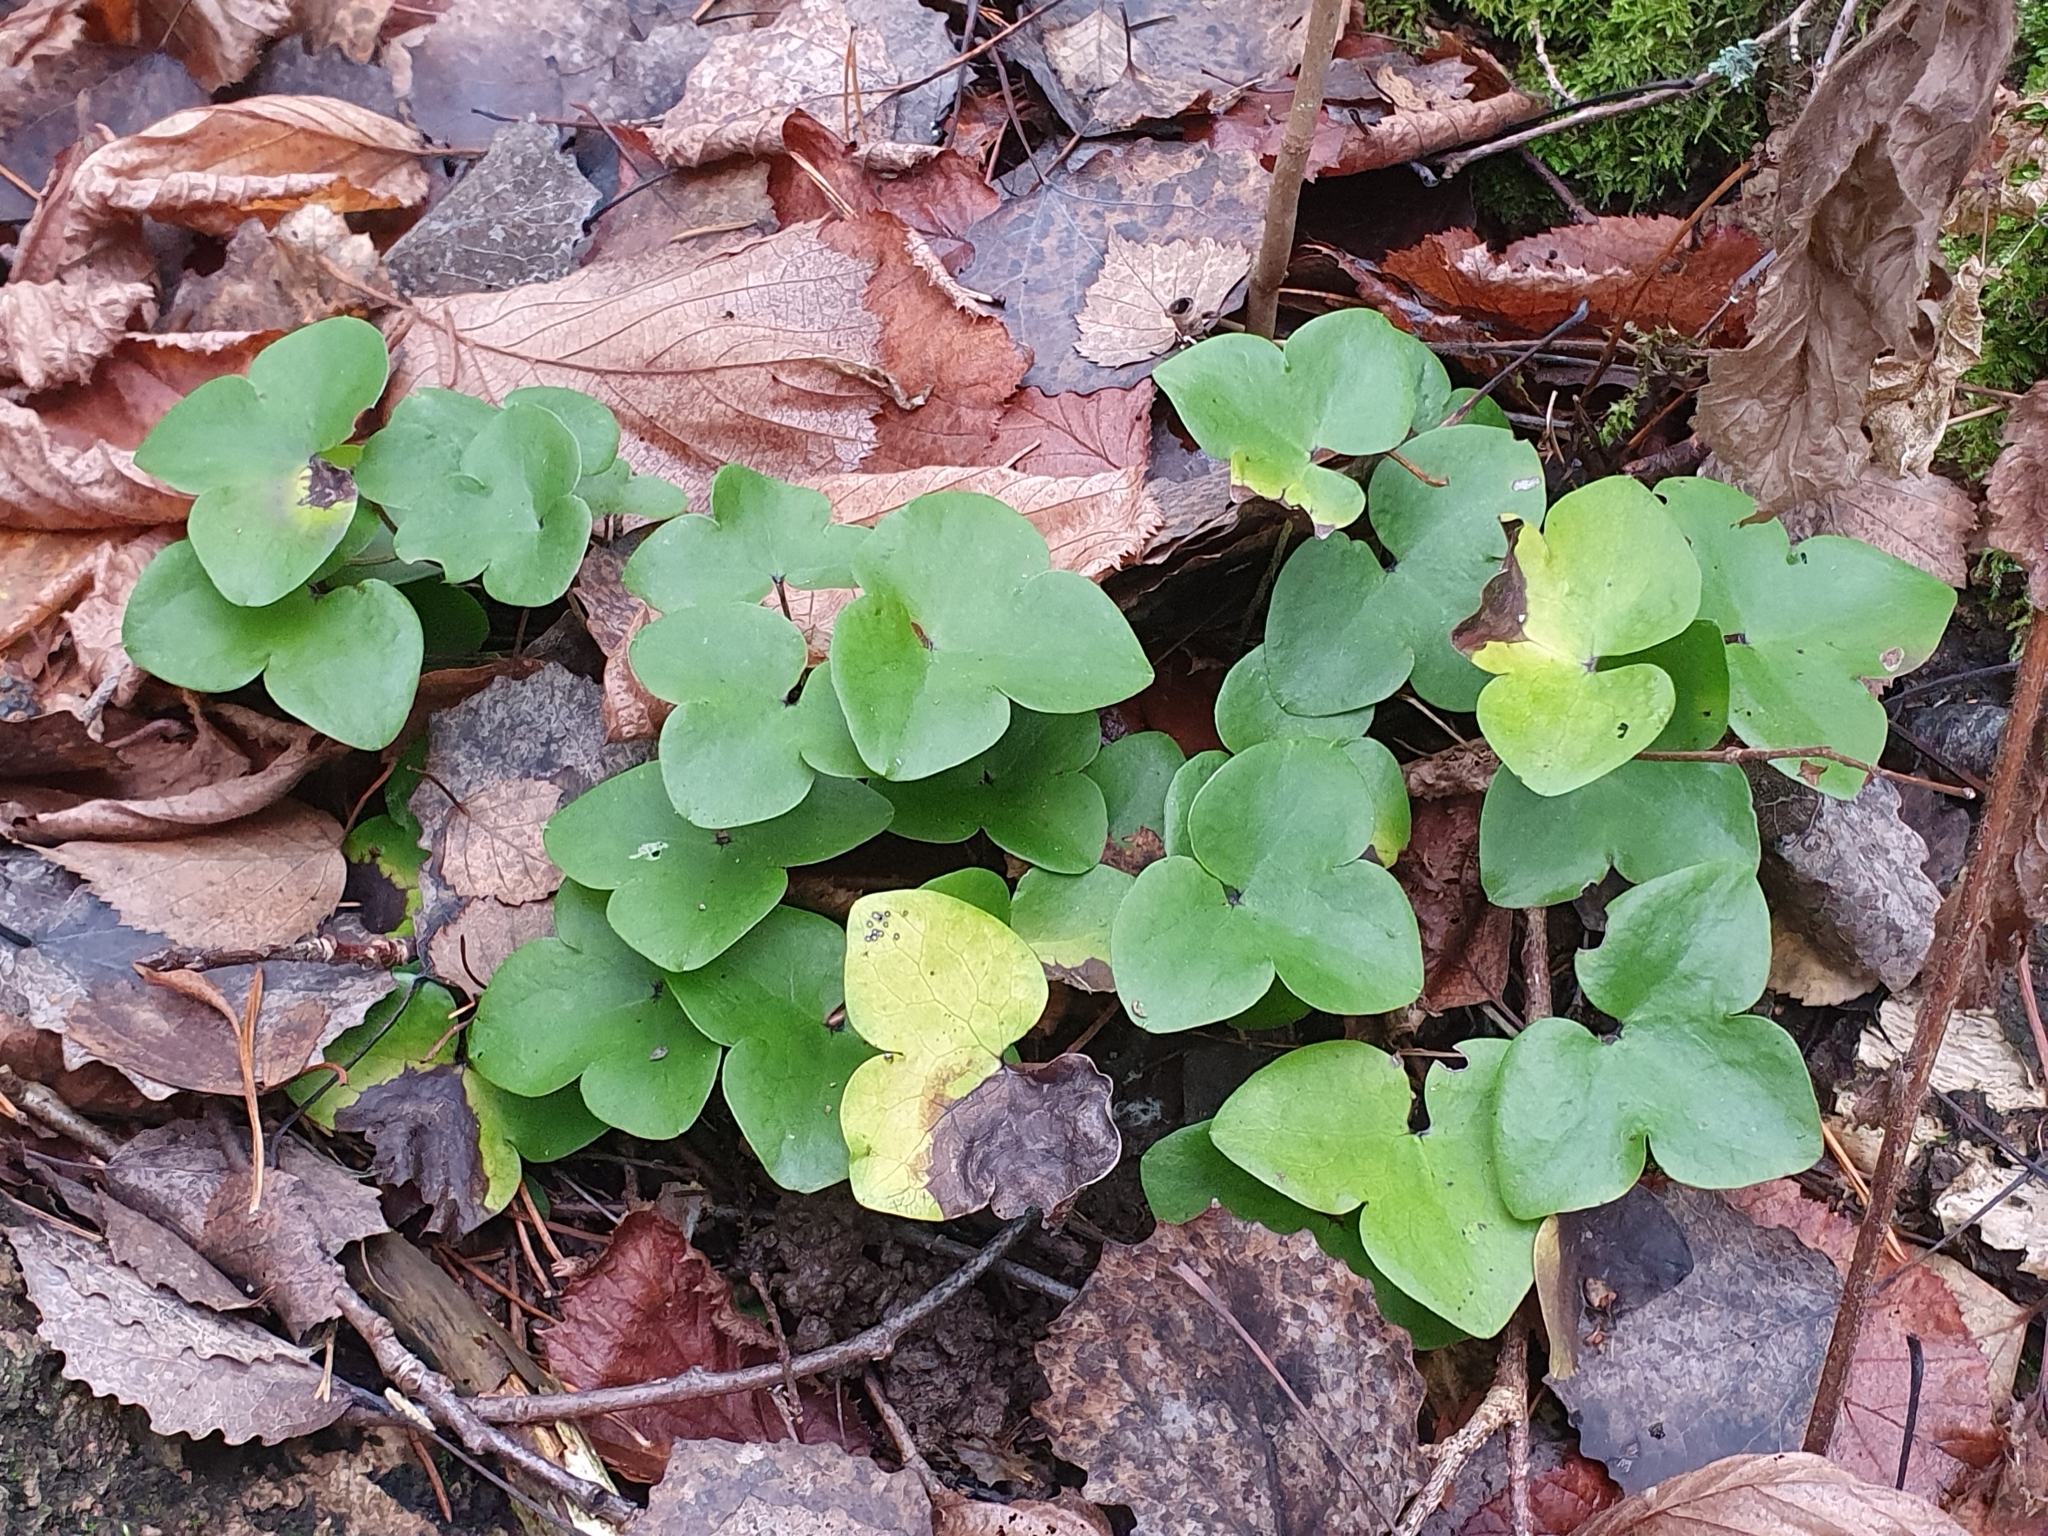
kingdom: Plantae
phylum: Tracheophyta
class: Magnoliopsida
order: Ranunculales
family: Ranunculaceae
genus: Hepatica
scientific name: Hepatica nobilis
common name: Liverleaf
